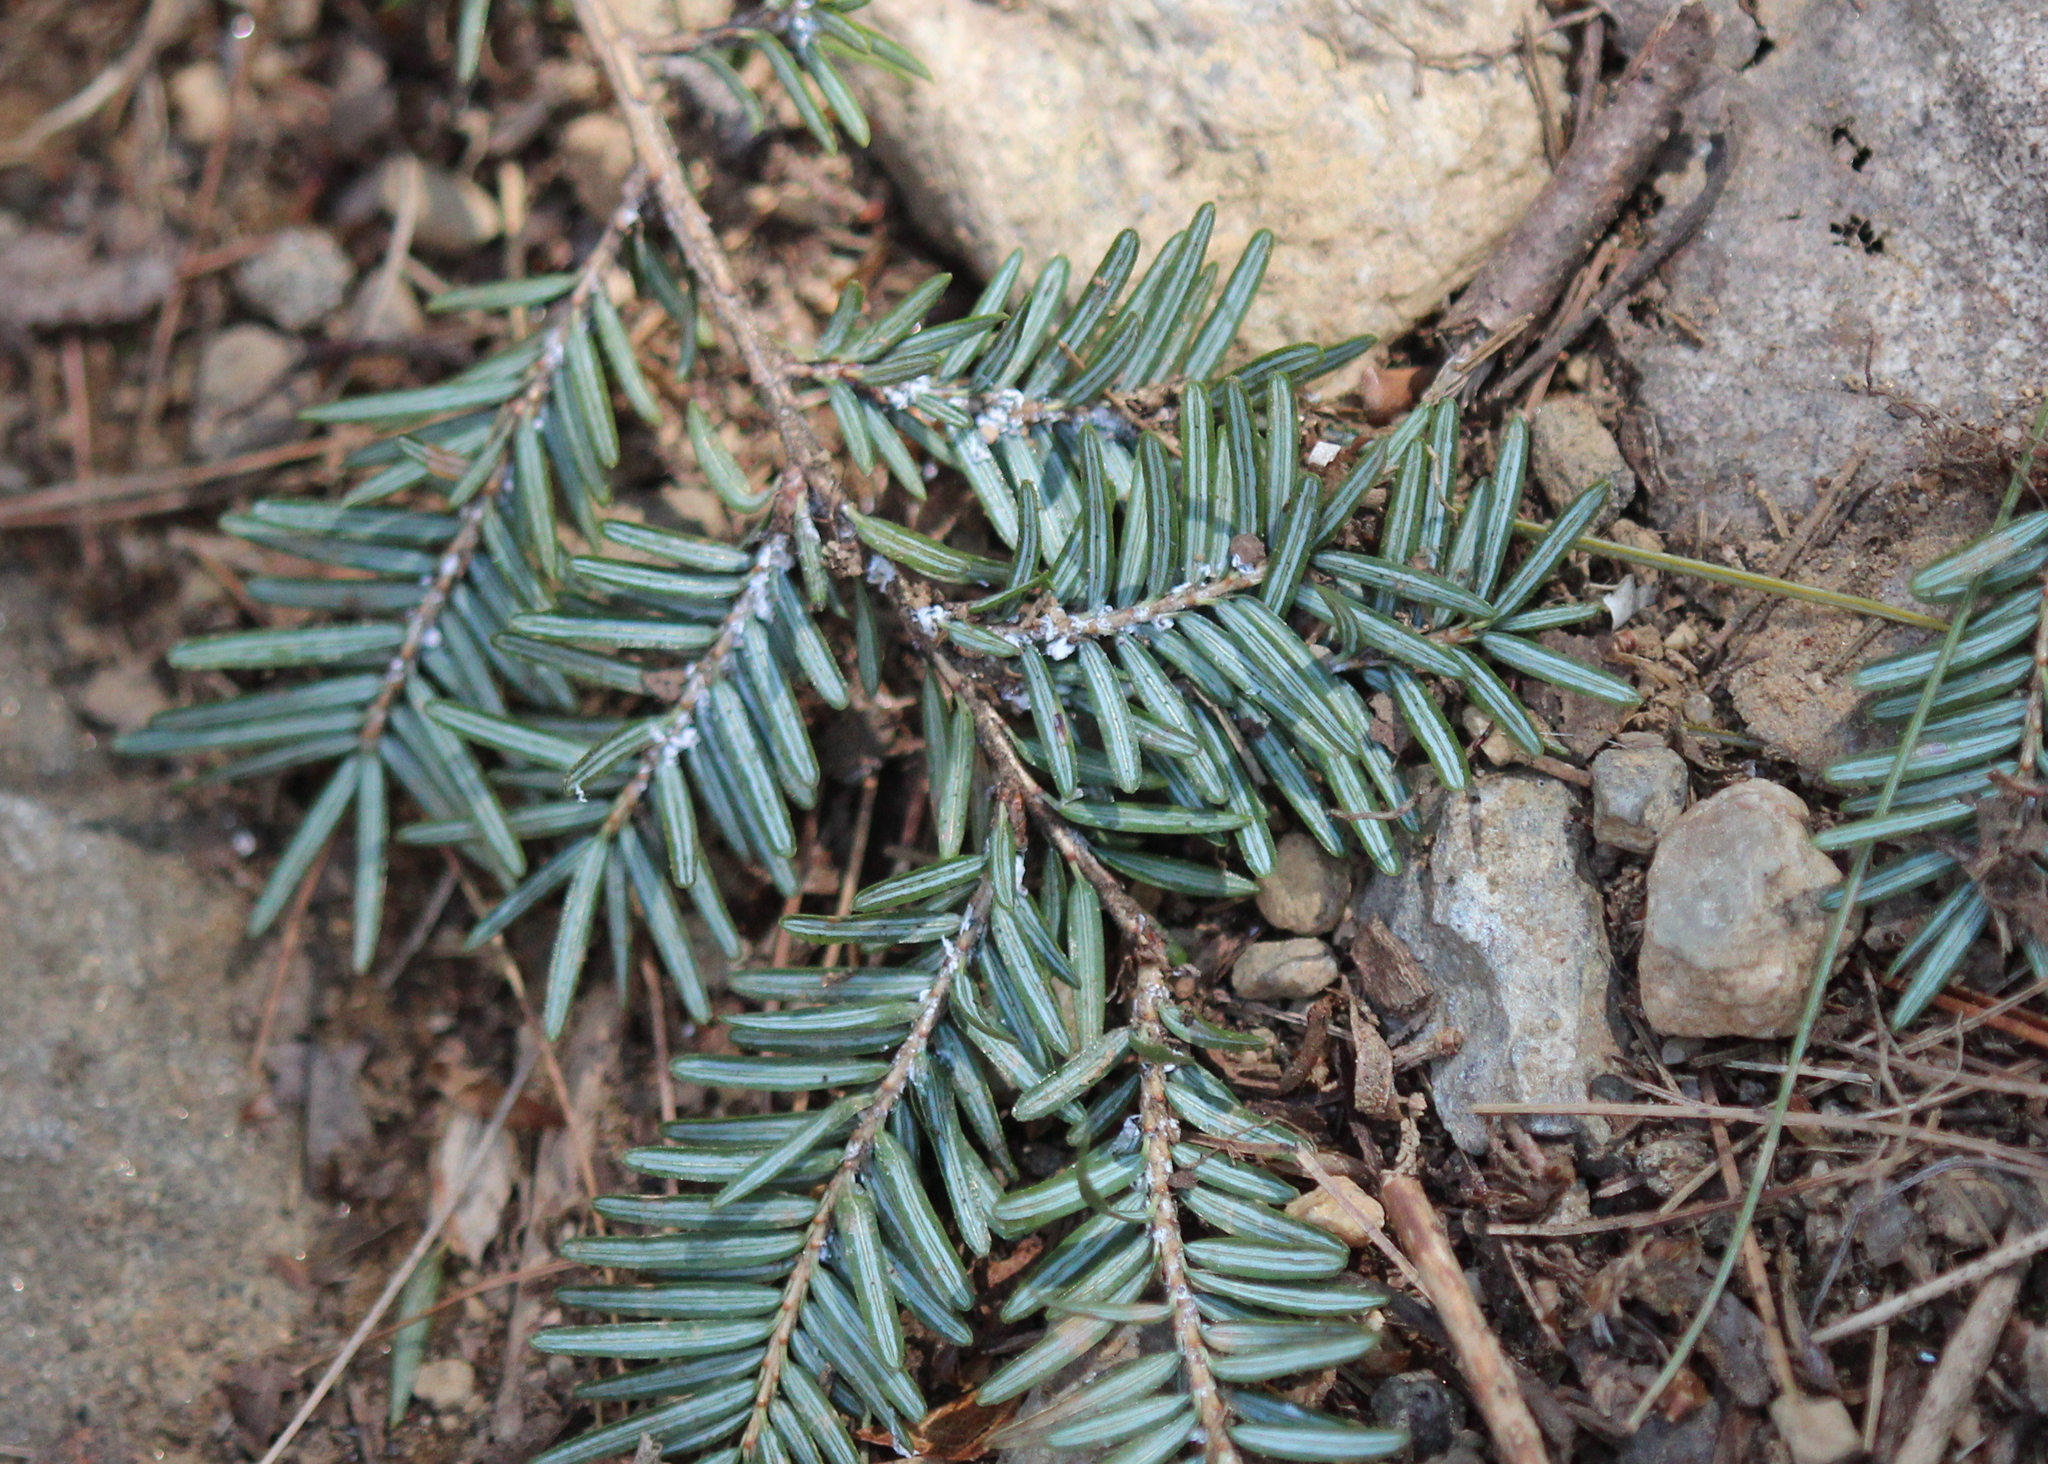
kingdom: Animalia
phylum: Arthropoda
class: Insecta
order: Hemiptera
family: Adelgidae
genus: Adelges
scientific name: Adelges tsugae
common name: Hemlock woolly adelgid
